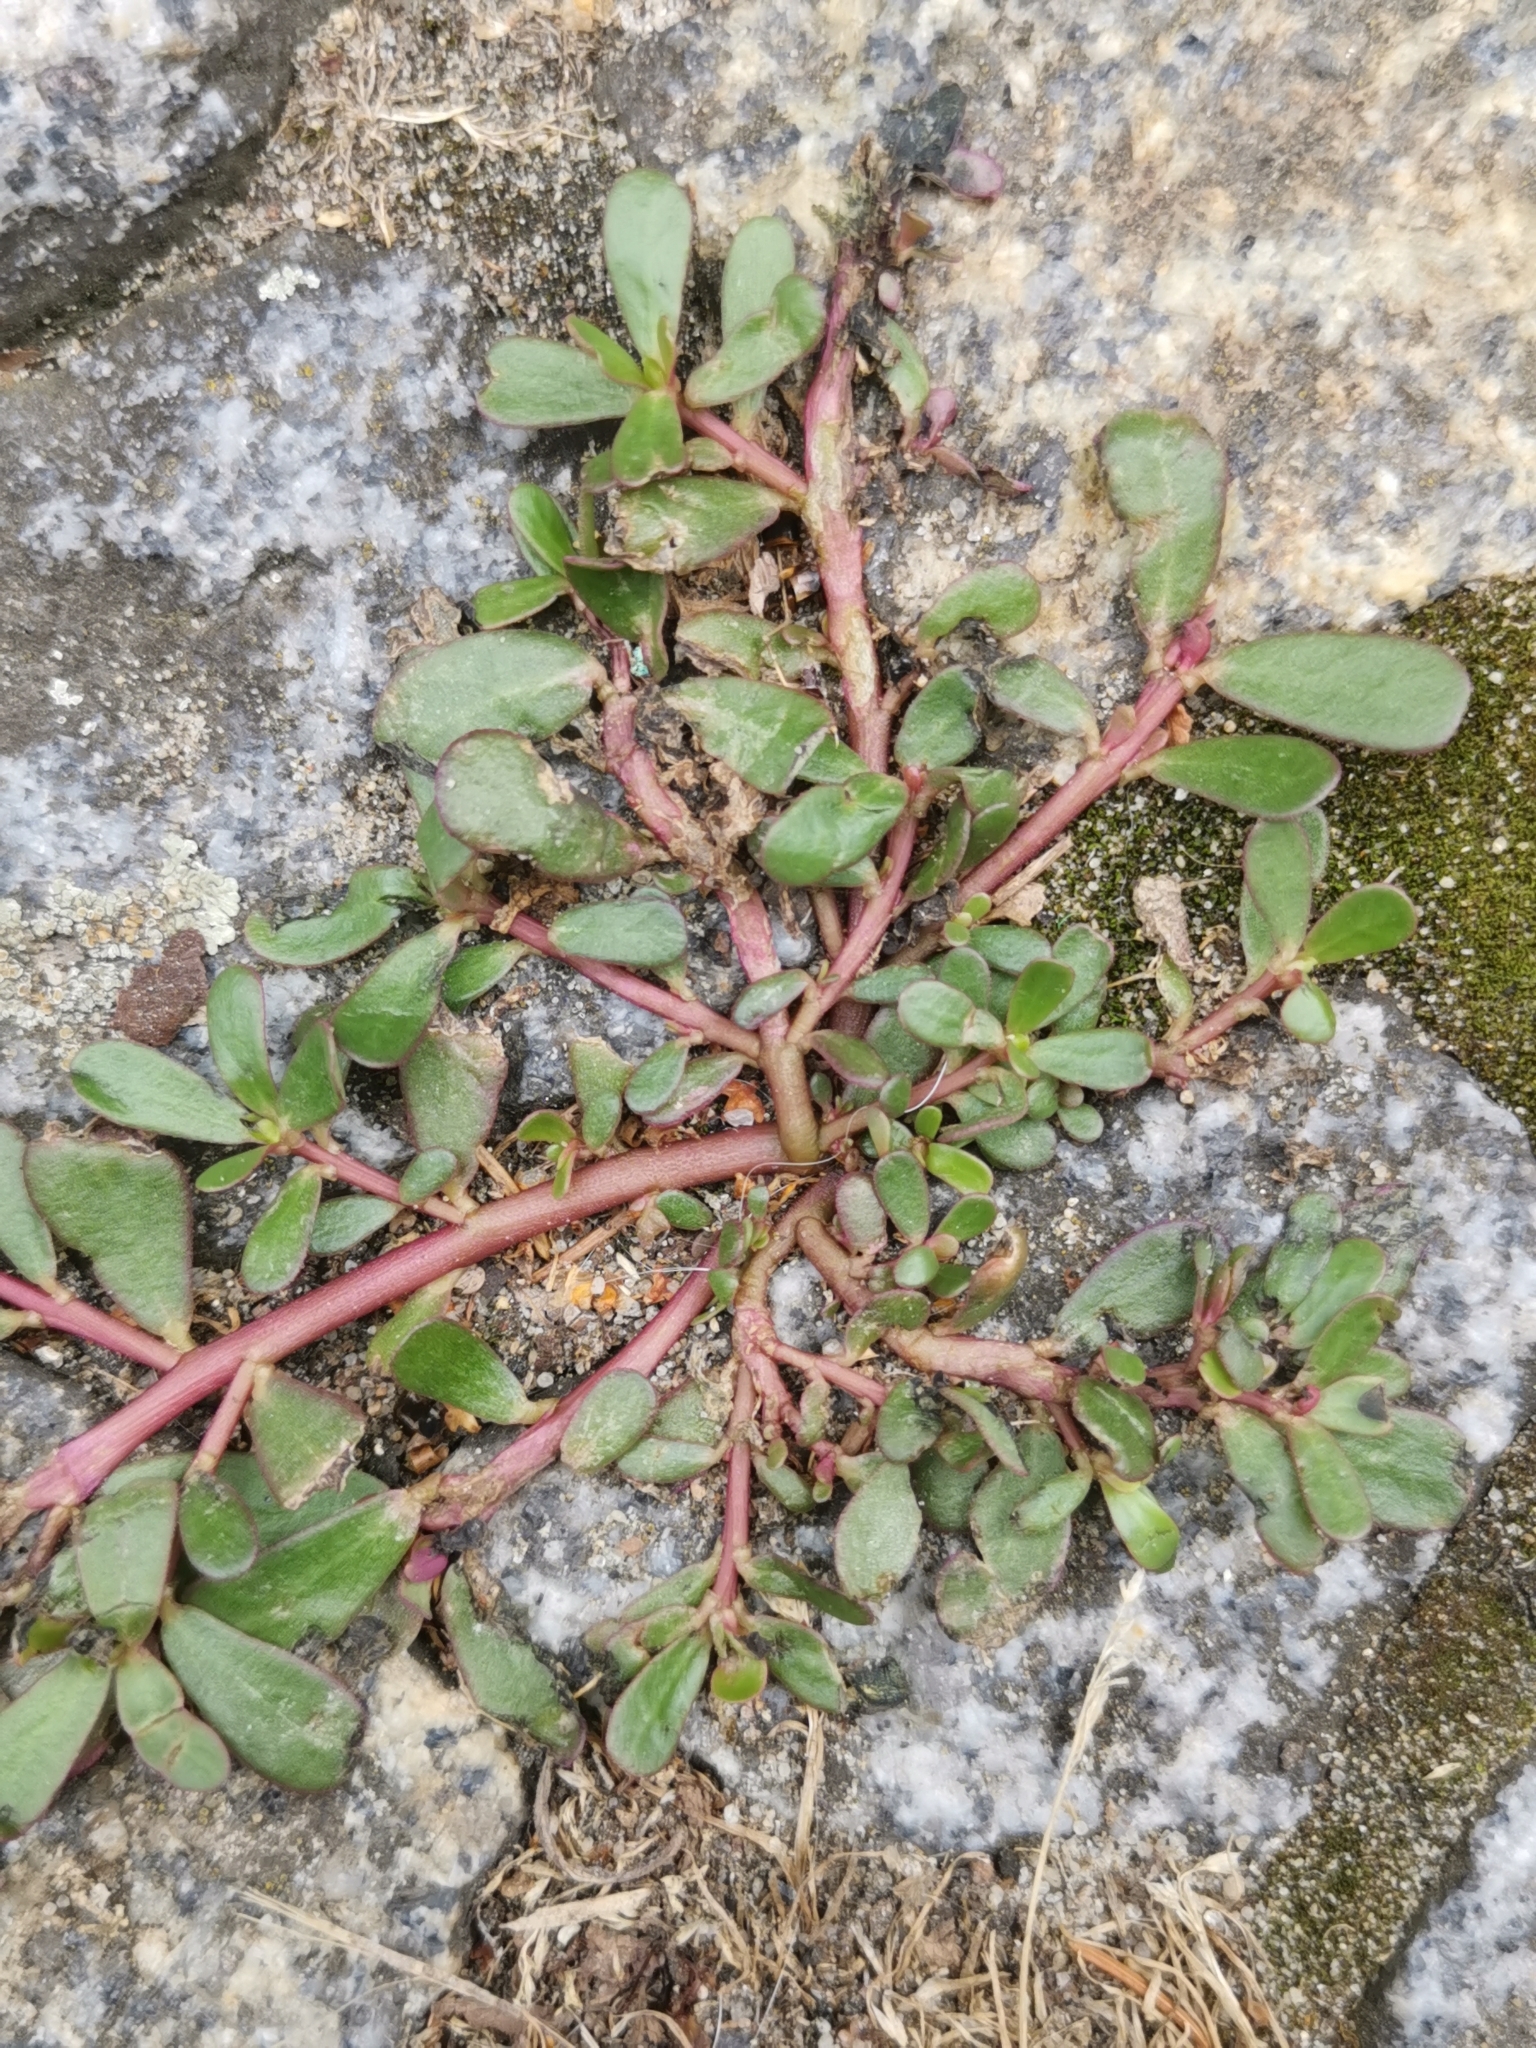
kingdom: Plantae
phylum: Tracheophyta
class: Magnoliopsida
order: Caryophyllales
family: Portulacaceae
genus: Portulaca
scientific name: Portulaca oleracea
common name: Common purslane
